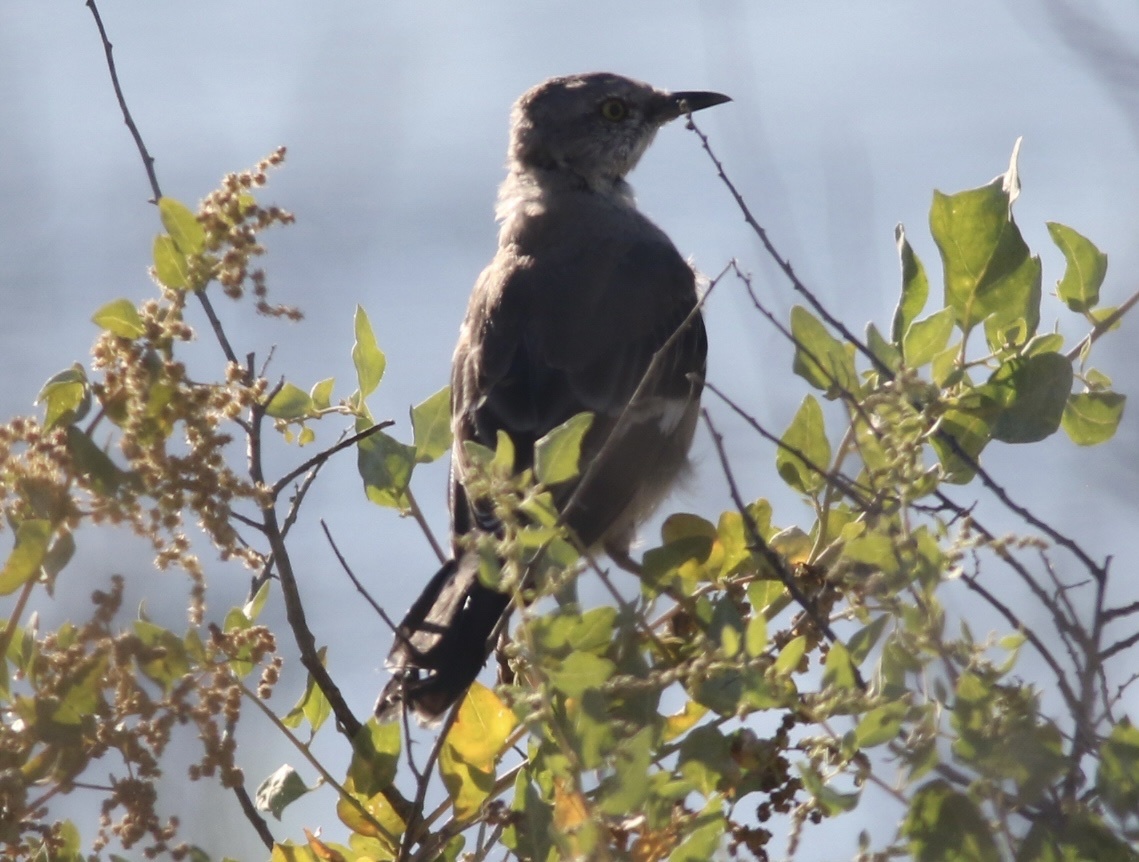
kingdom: Animalia
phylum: Chordata
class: Aves
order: Passeriformes
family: Mimidae
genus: Mimus
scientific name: Mimus polyglottos
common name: Northern mockingbird
